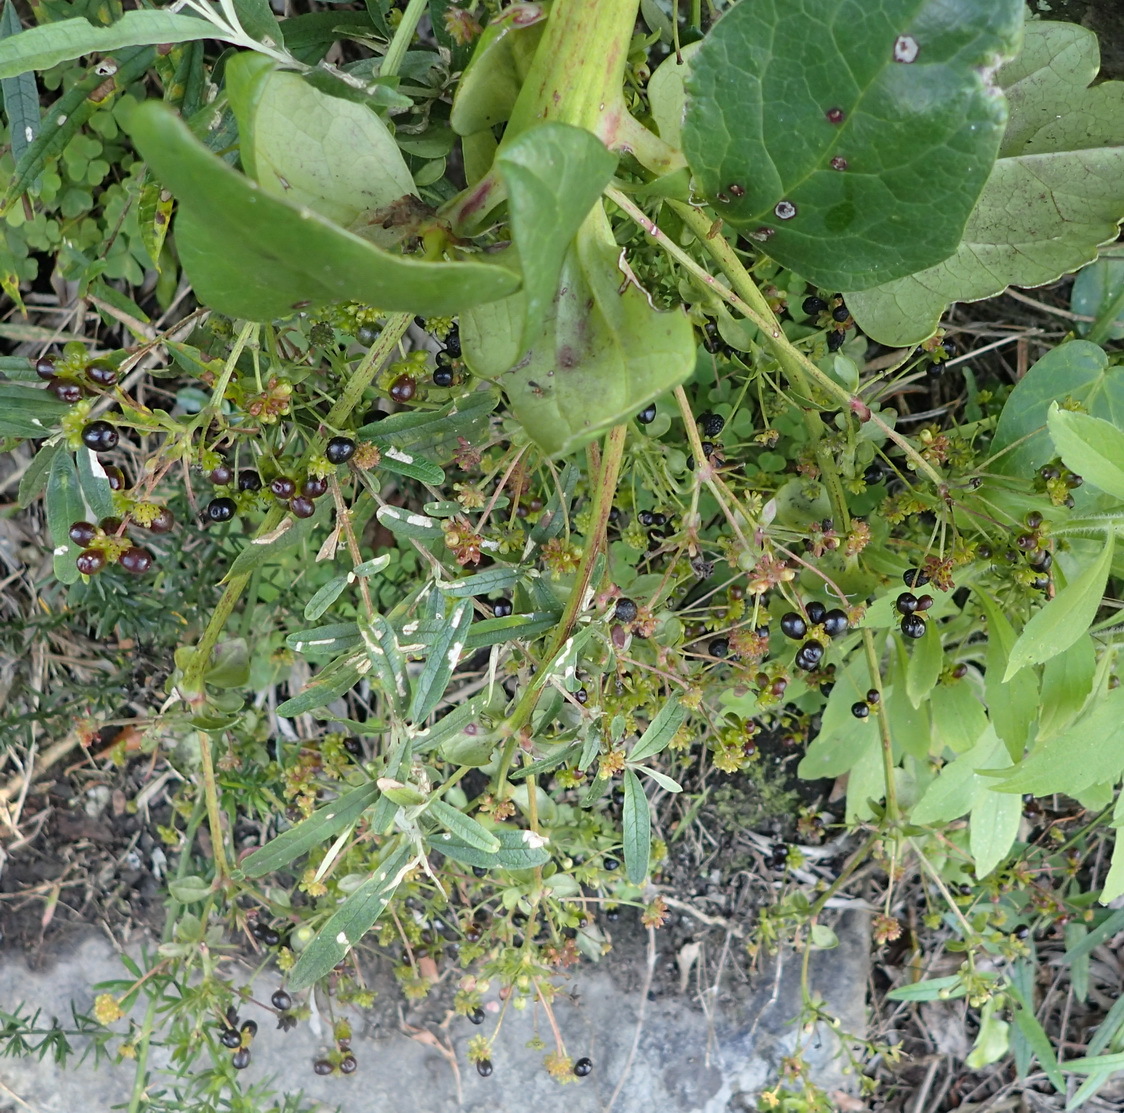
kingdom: Plantae
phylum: Tracheophyta
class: Magnoliopsida
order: Ranunculales
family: Ranunculaceae
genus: Knowltonia
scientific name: Knowltonia vesicatoria
